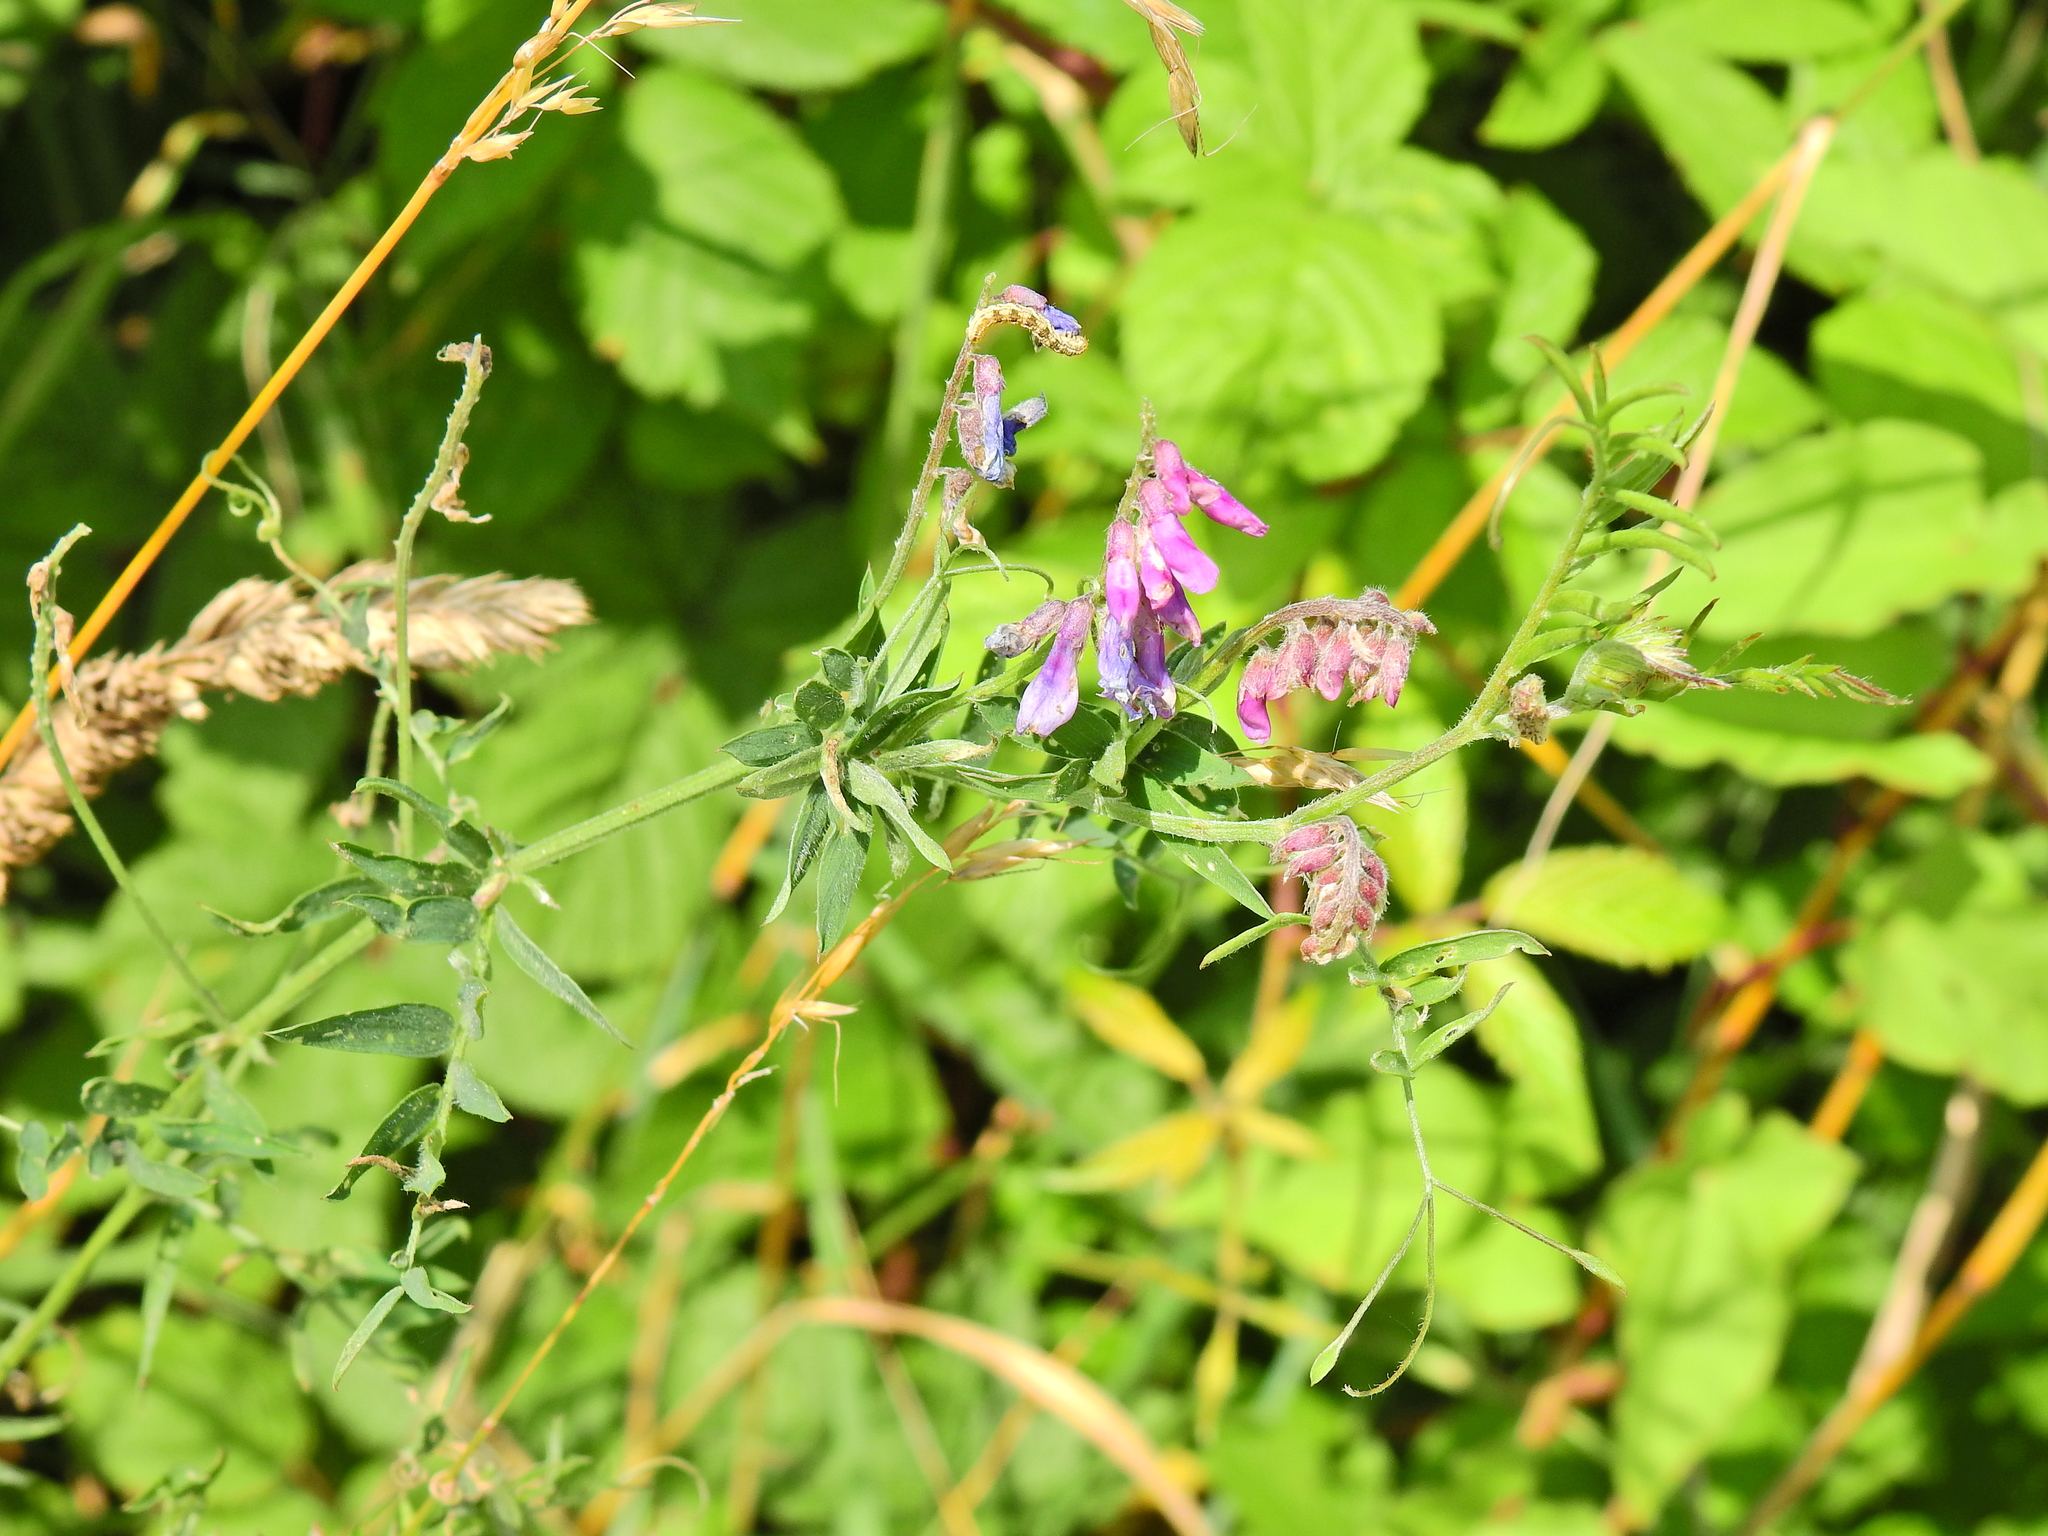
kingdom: Plantae
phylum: Tracheophyta
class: Magnoliopsida
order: Fabales
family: Fabaceae
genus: Vicia
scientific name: Vicia cracca
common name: Bird vetch
